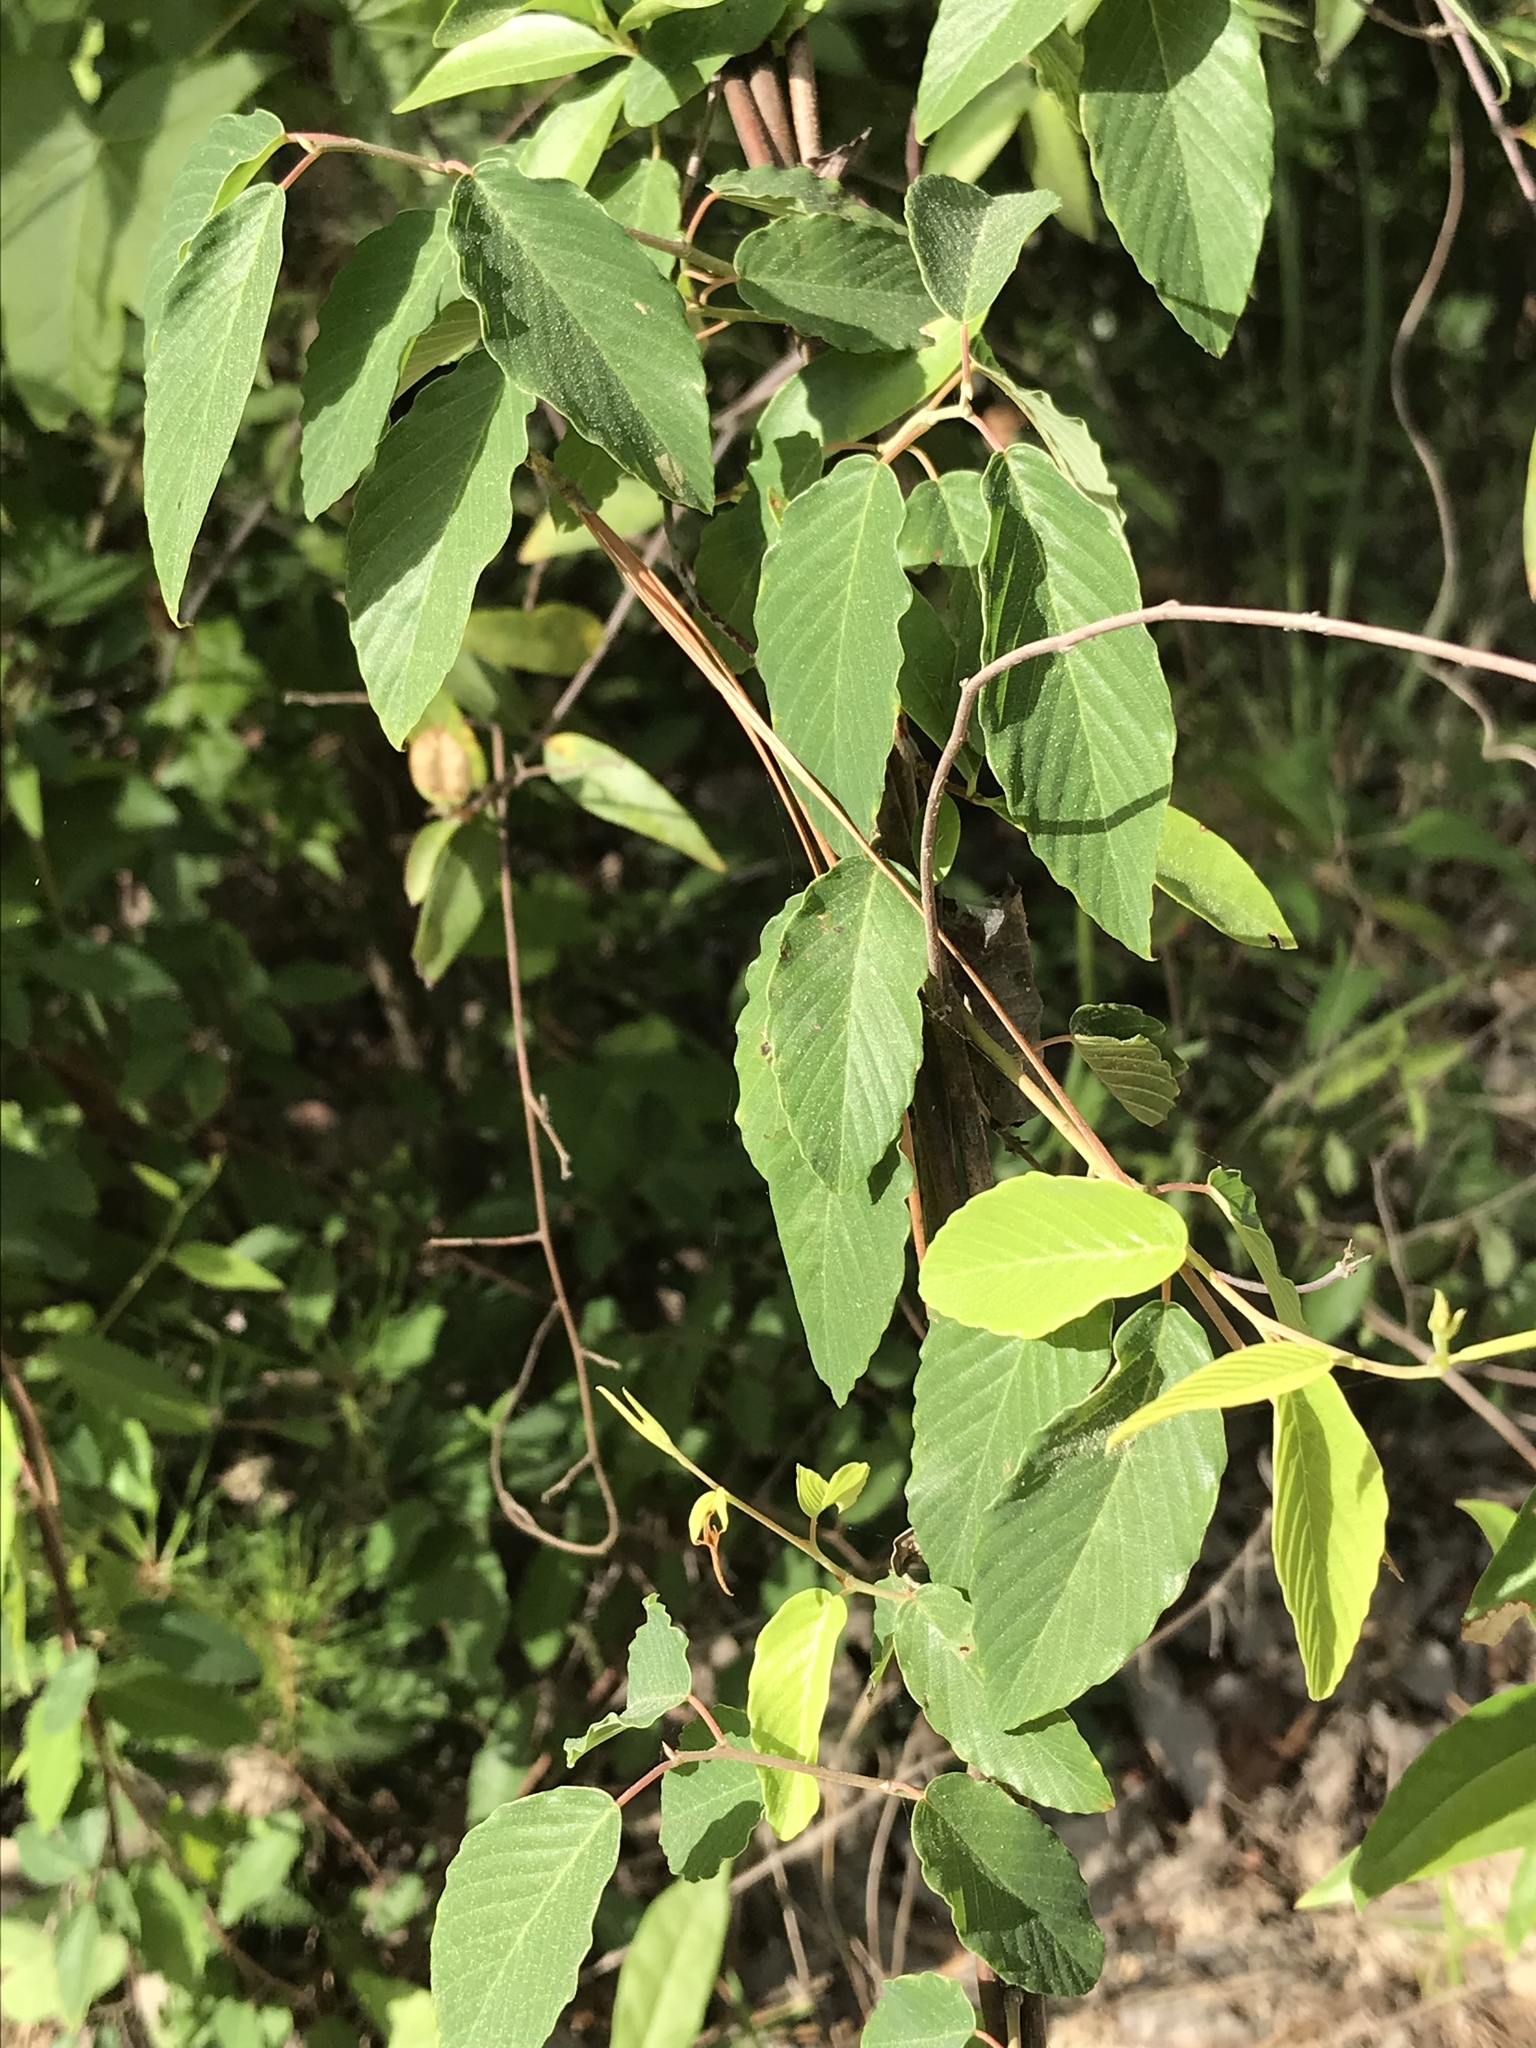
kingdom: Plantae
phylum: Tracheophyta
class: Magnoliopsida
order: Rosales
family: Rhamnaceae
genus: Berchemia
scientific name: Berchemia scandens
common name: Supplejack
